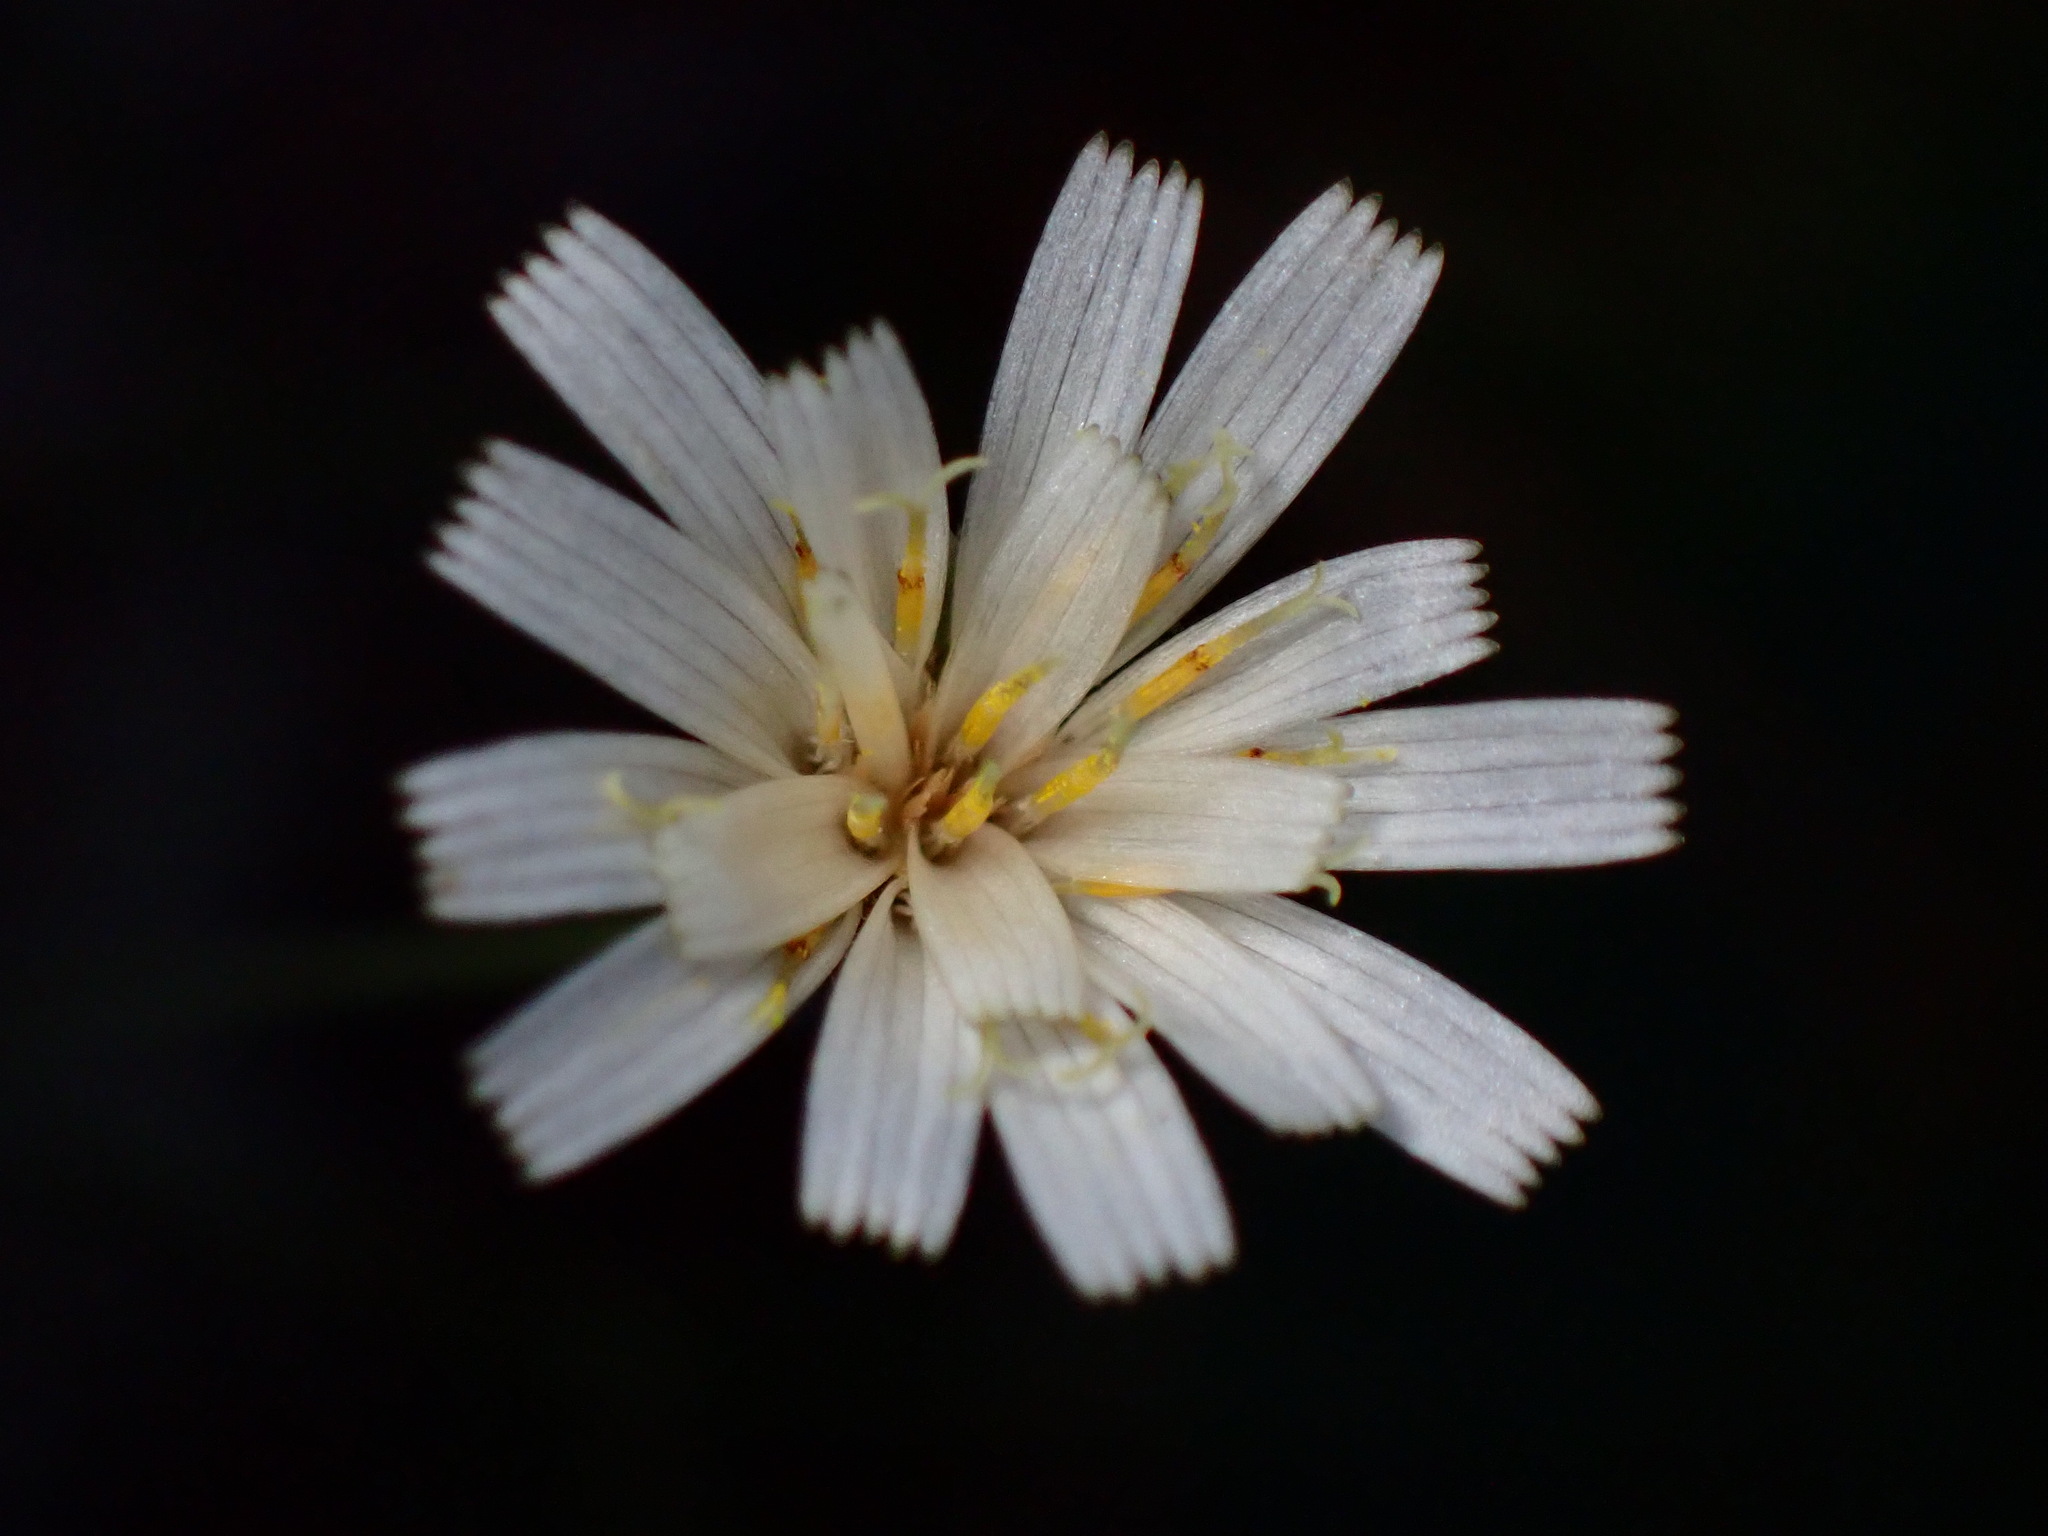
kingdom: Plantae
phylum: Tracheophyta
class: Magnoliopsida
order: Asterales
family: Asteraceae
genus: Hieracium
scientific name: Hieracium albiflorum
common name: White hawkweed
